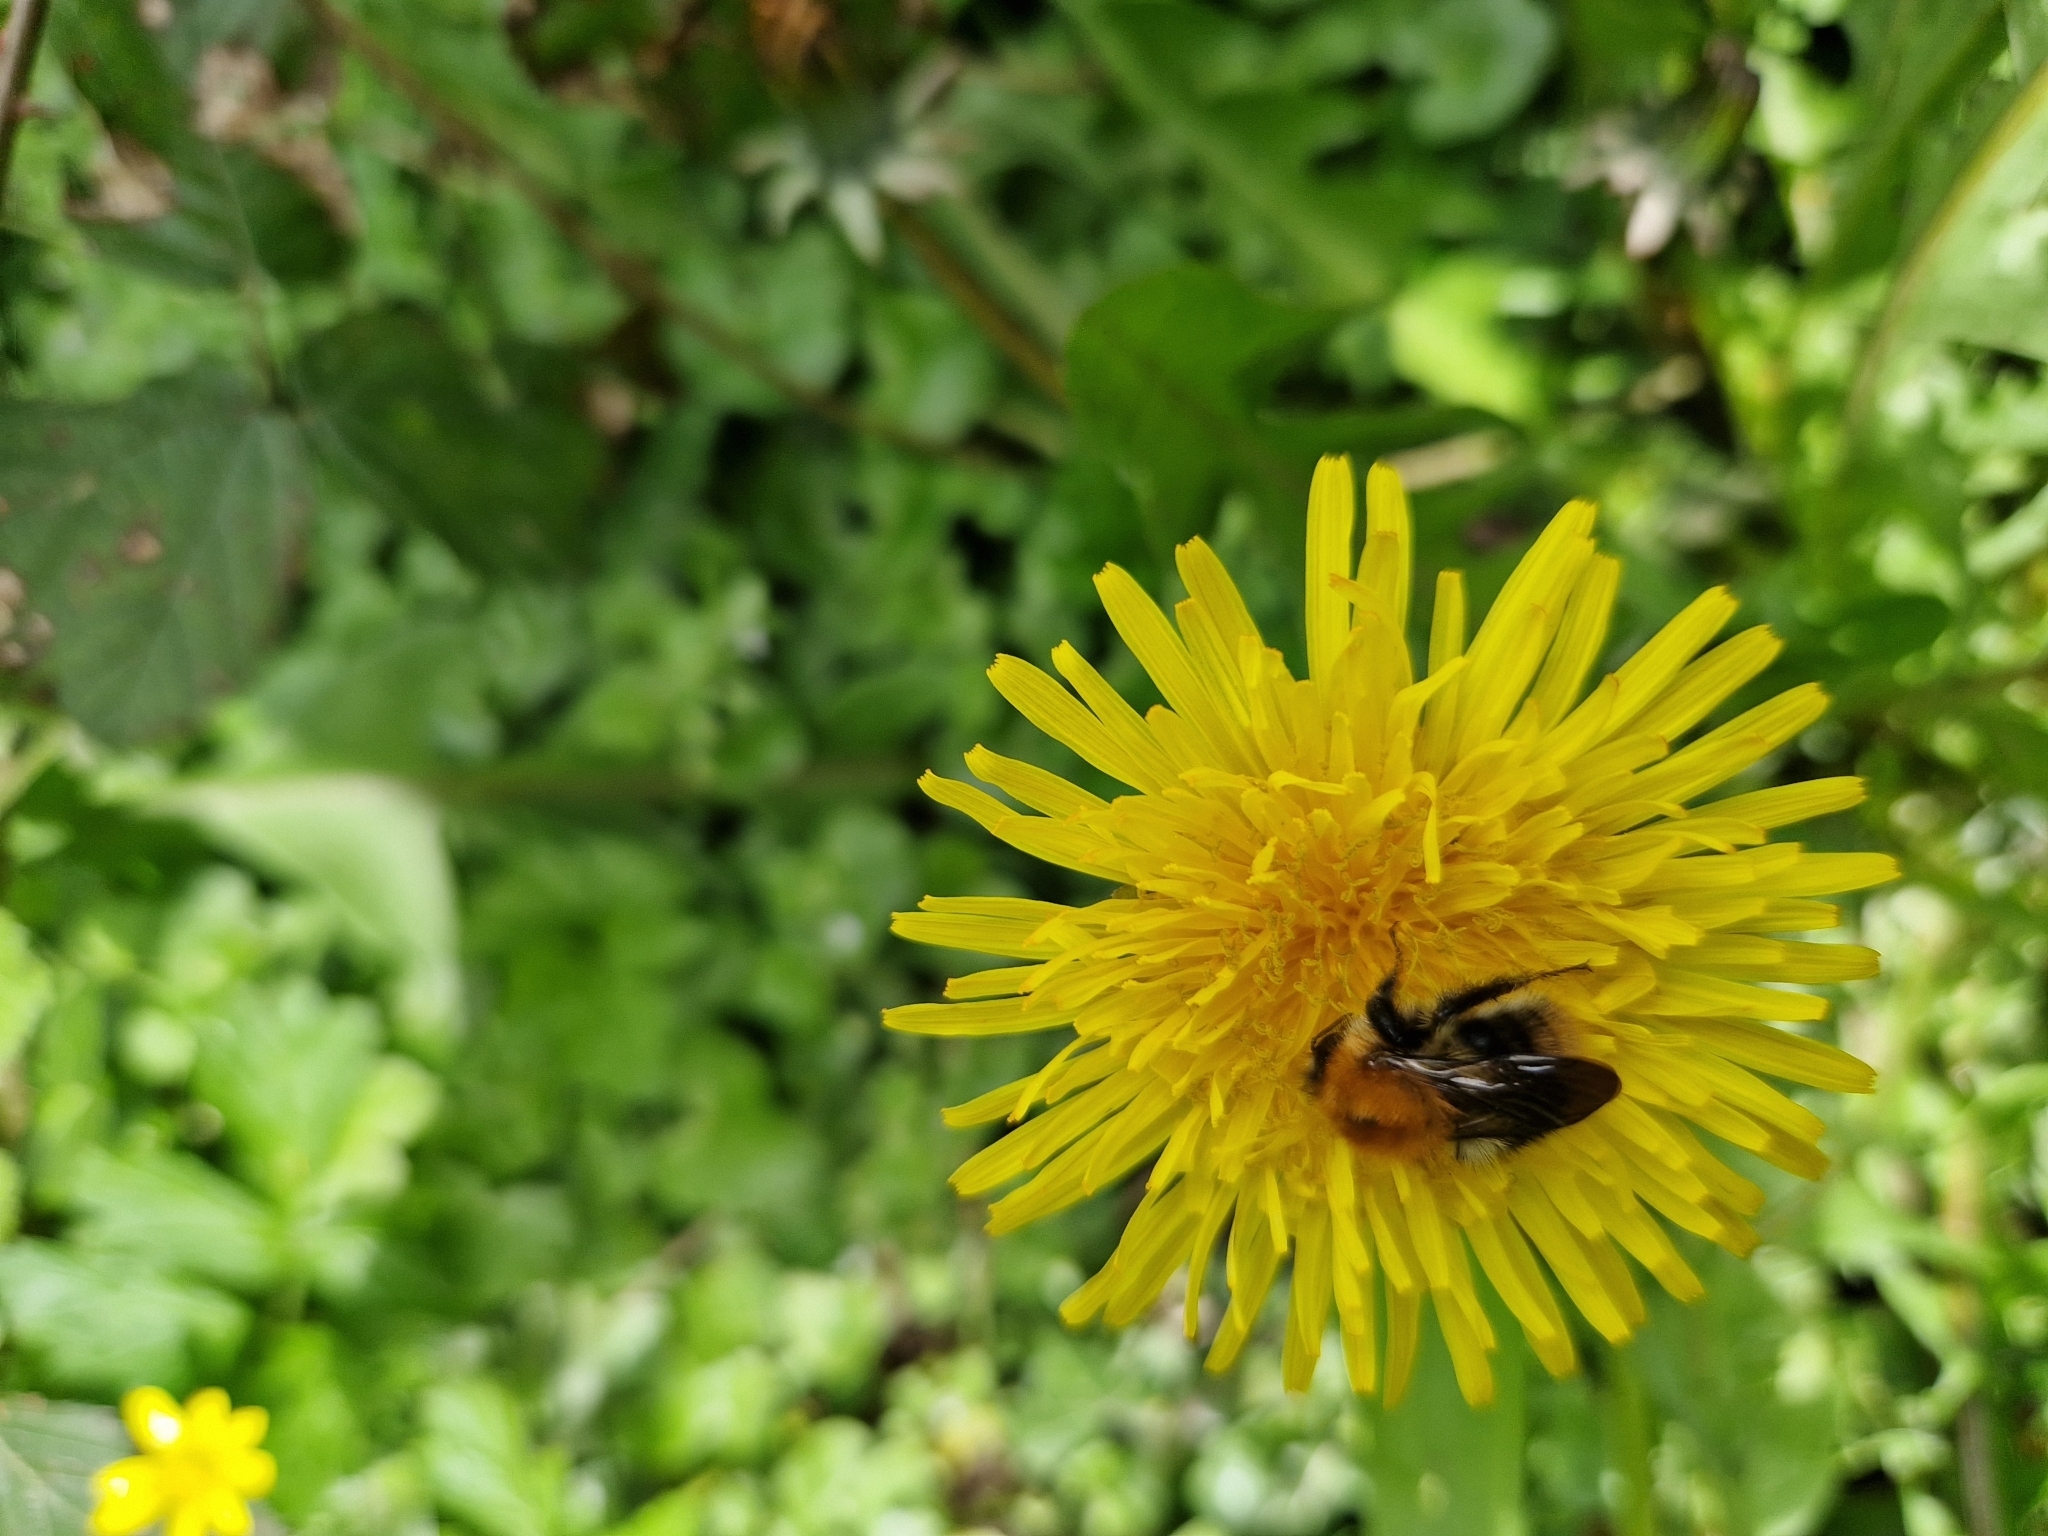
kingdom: Animalia
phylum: Arthropoda
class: Insecta
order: Hymenoptera
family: Apidae
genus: Bombus
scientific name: Bombus pascuorum
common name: Common carder bee
